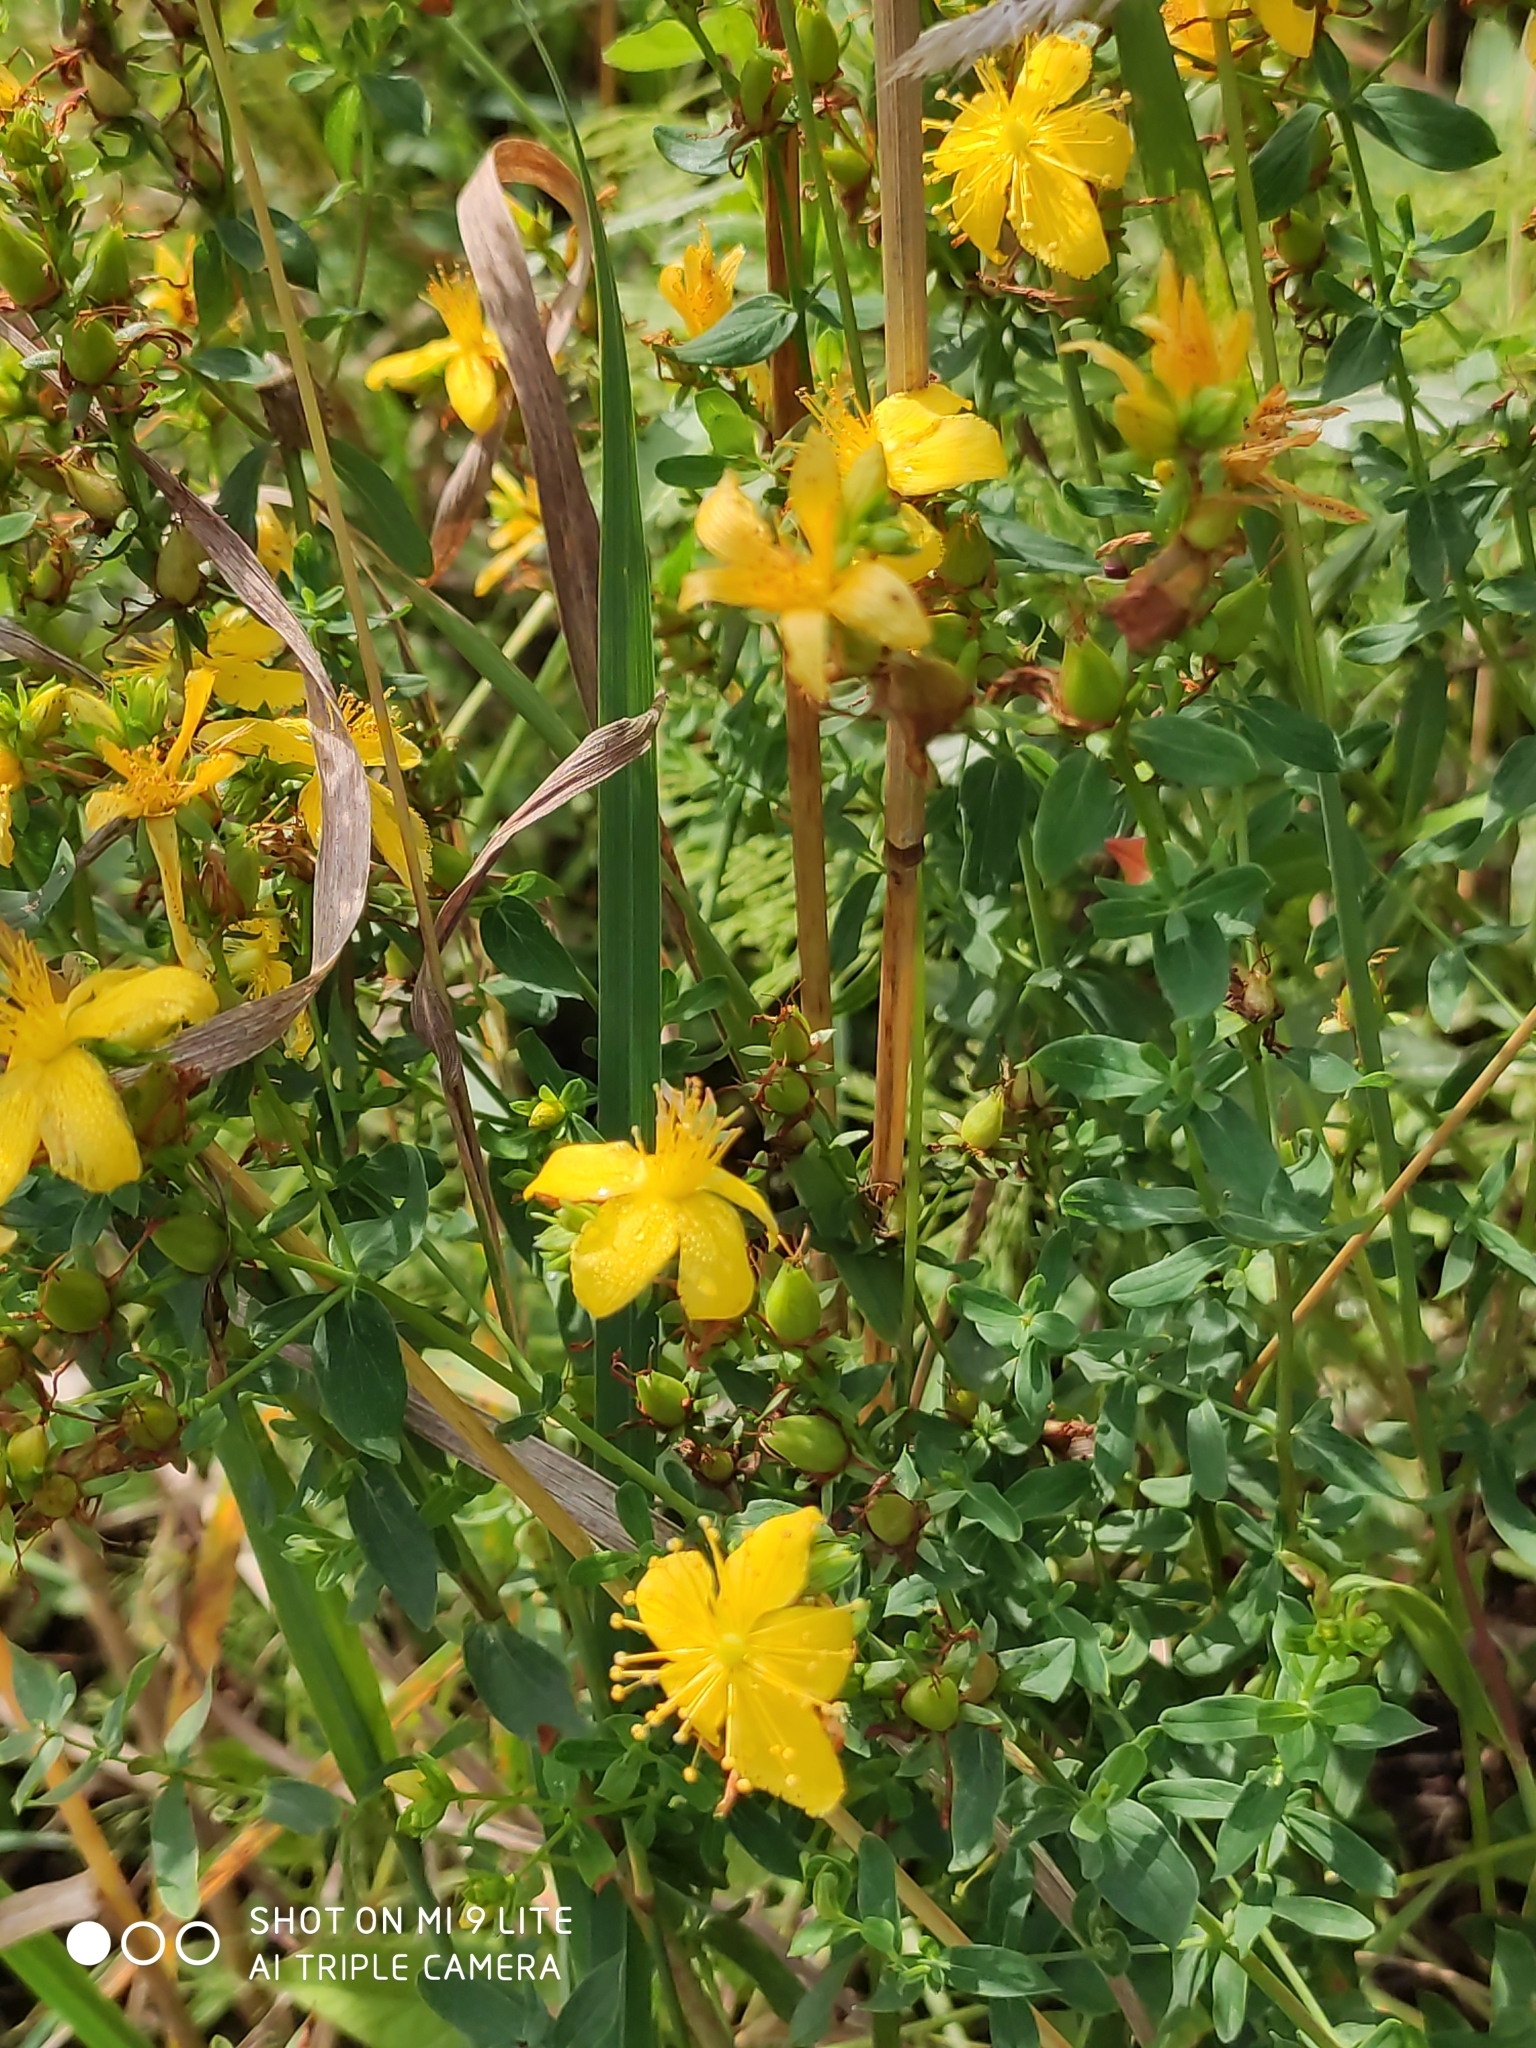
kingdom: Plantae
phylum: Tracheophyta
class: Magnoliopsida
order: Malpighiales
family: Hypericaceae
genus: Hypericum
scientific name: Hypericum perforatum
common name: Common st. johnswort
